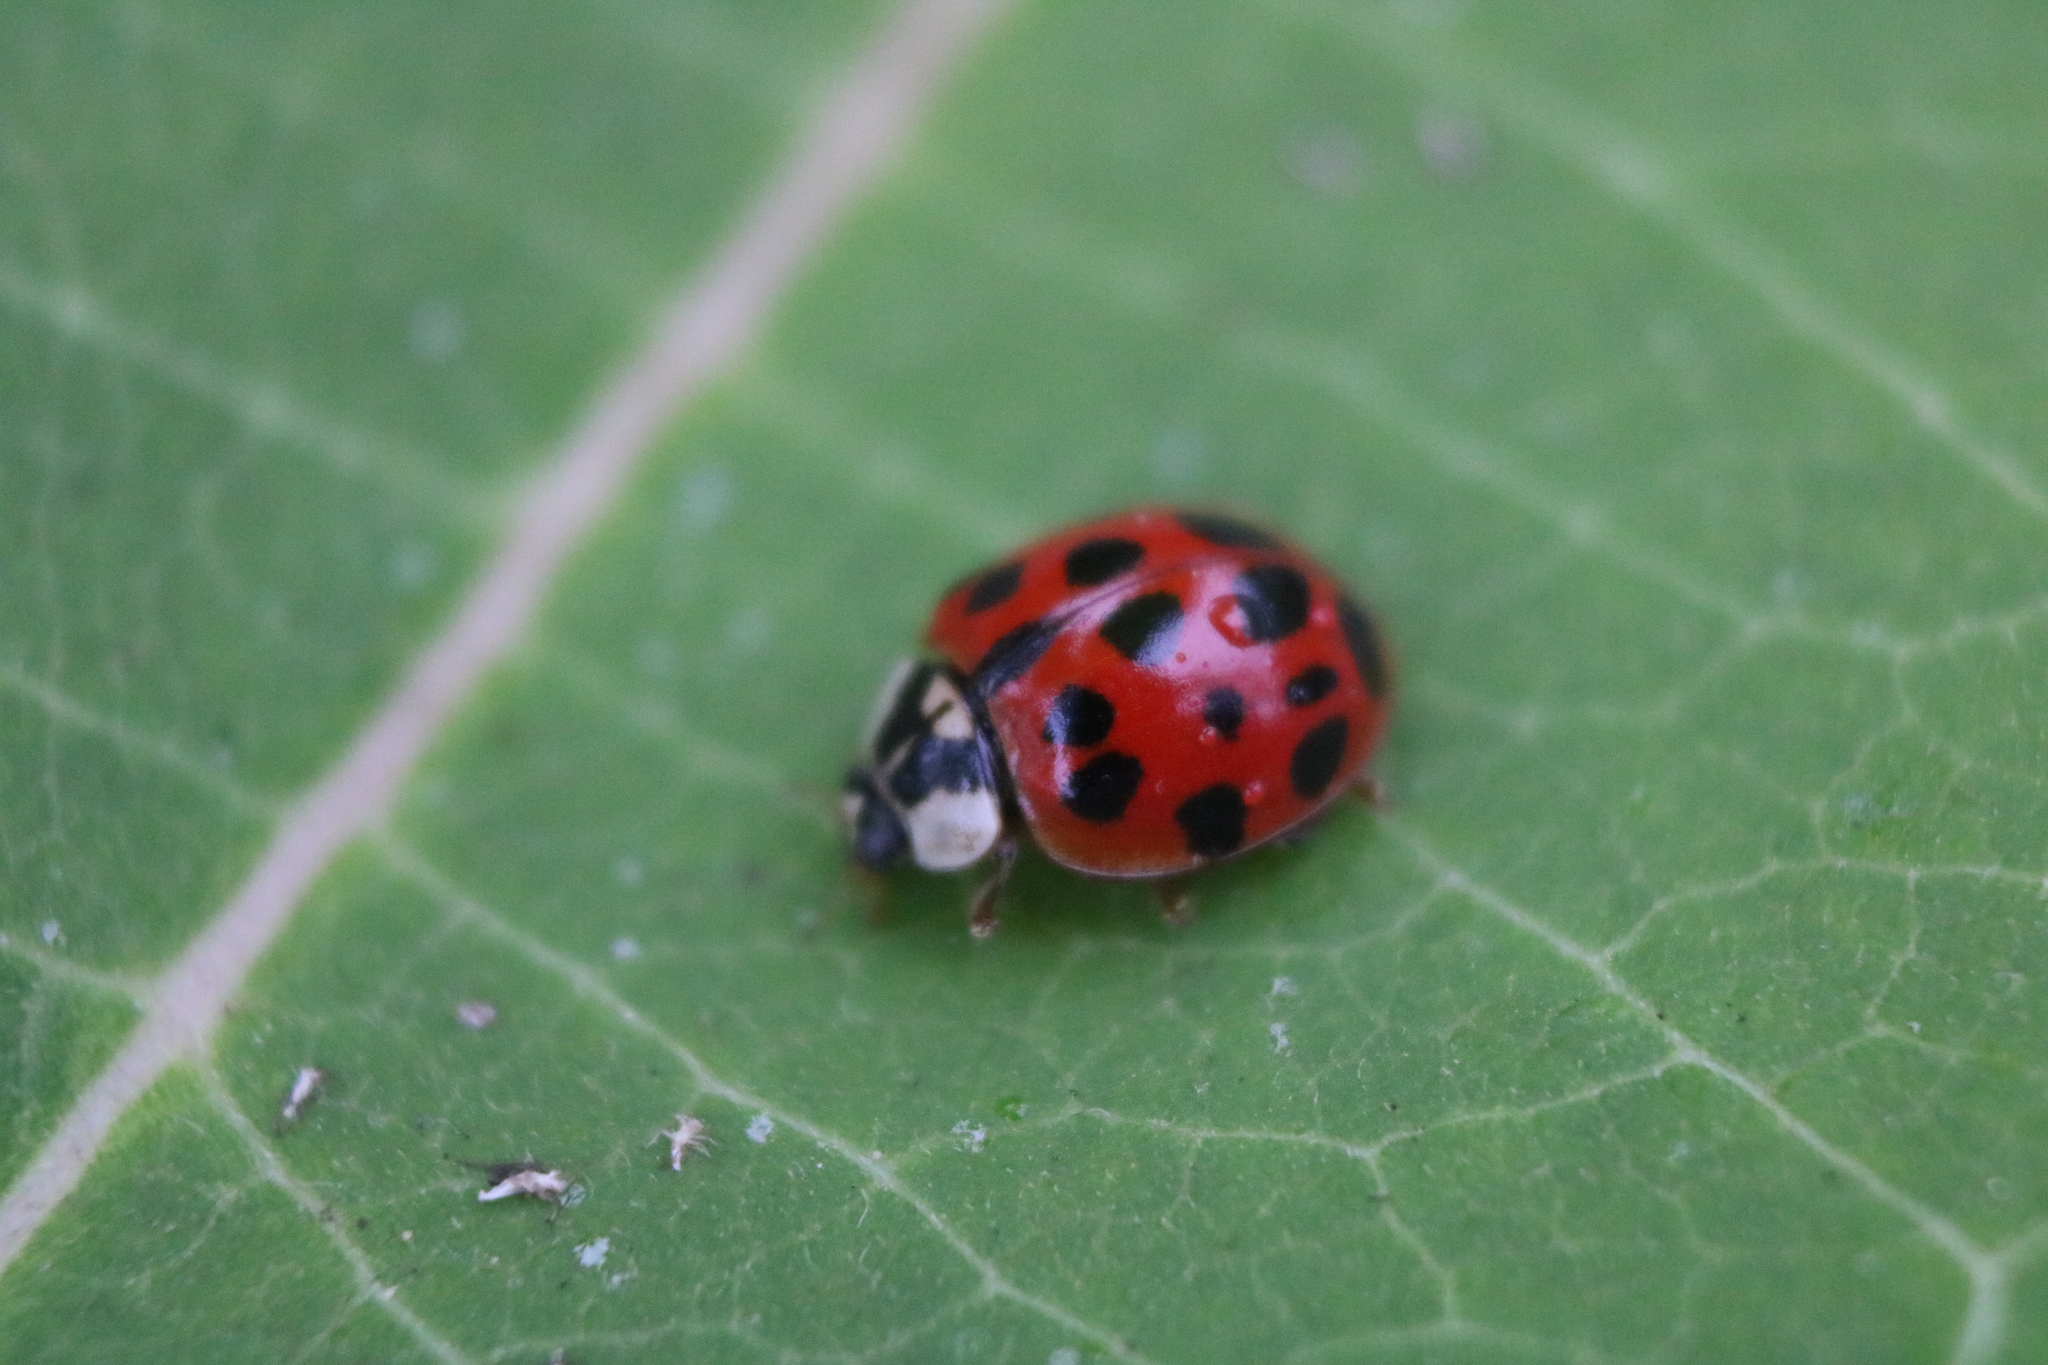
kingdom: Animalia
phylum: Arthropoda
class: Insecta
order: Coleoptera
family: Coccinellidae
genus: Harmonia
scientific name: Harmonia axyridis
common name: Harlequin ladybird
